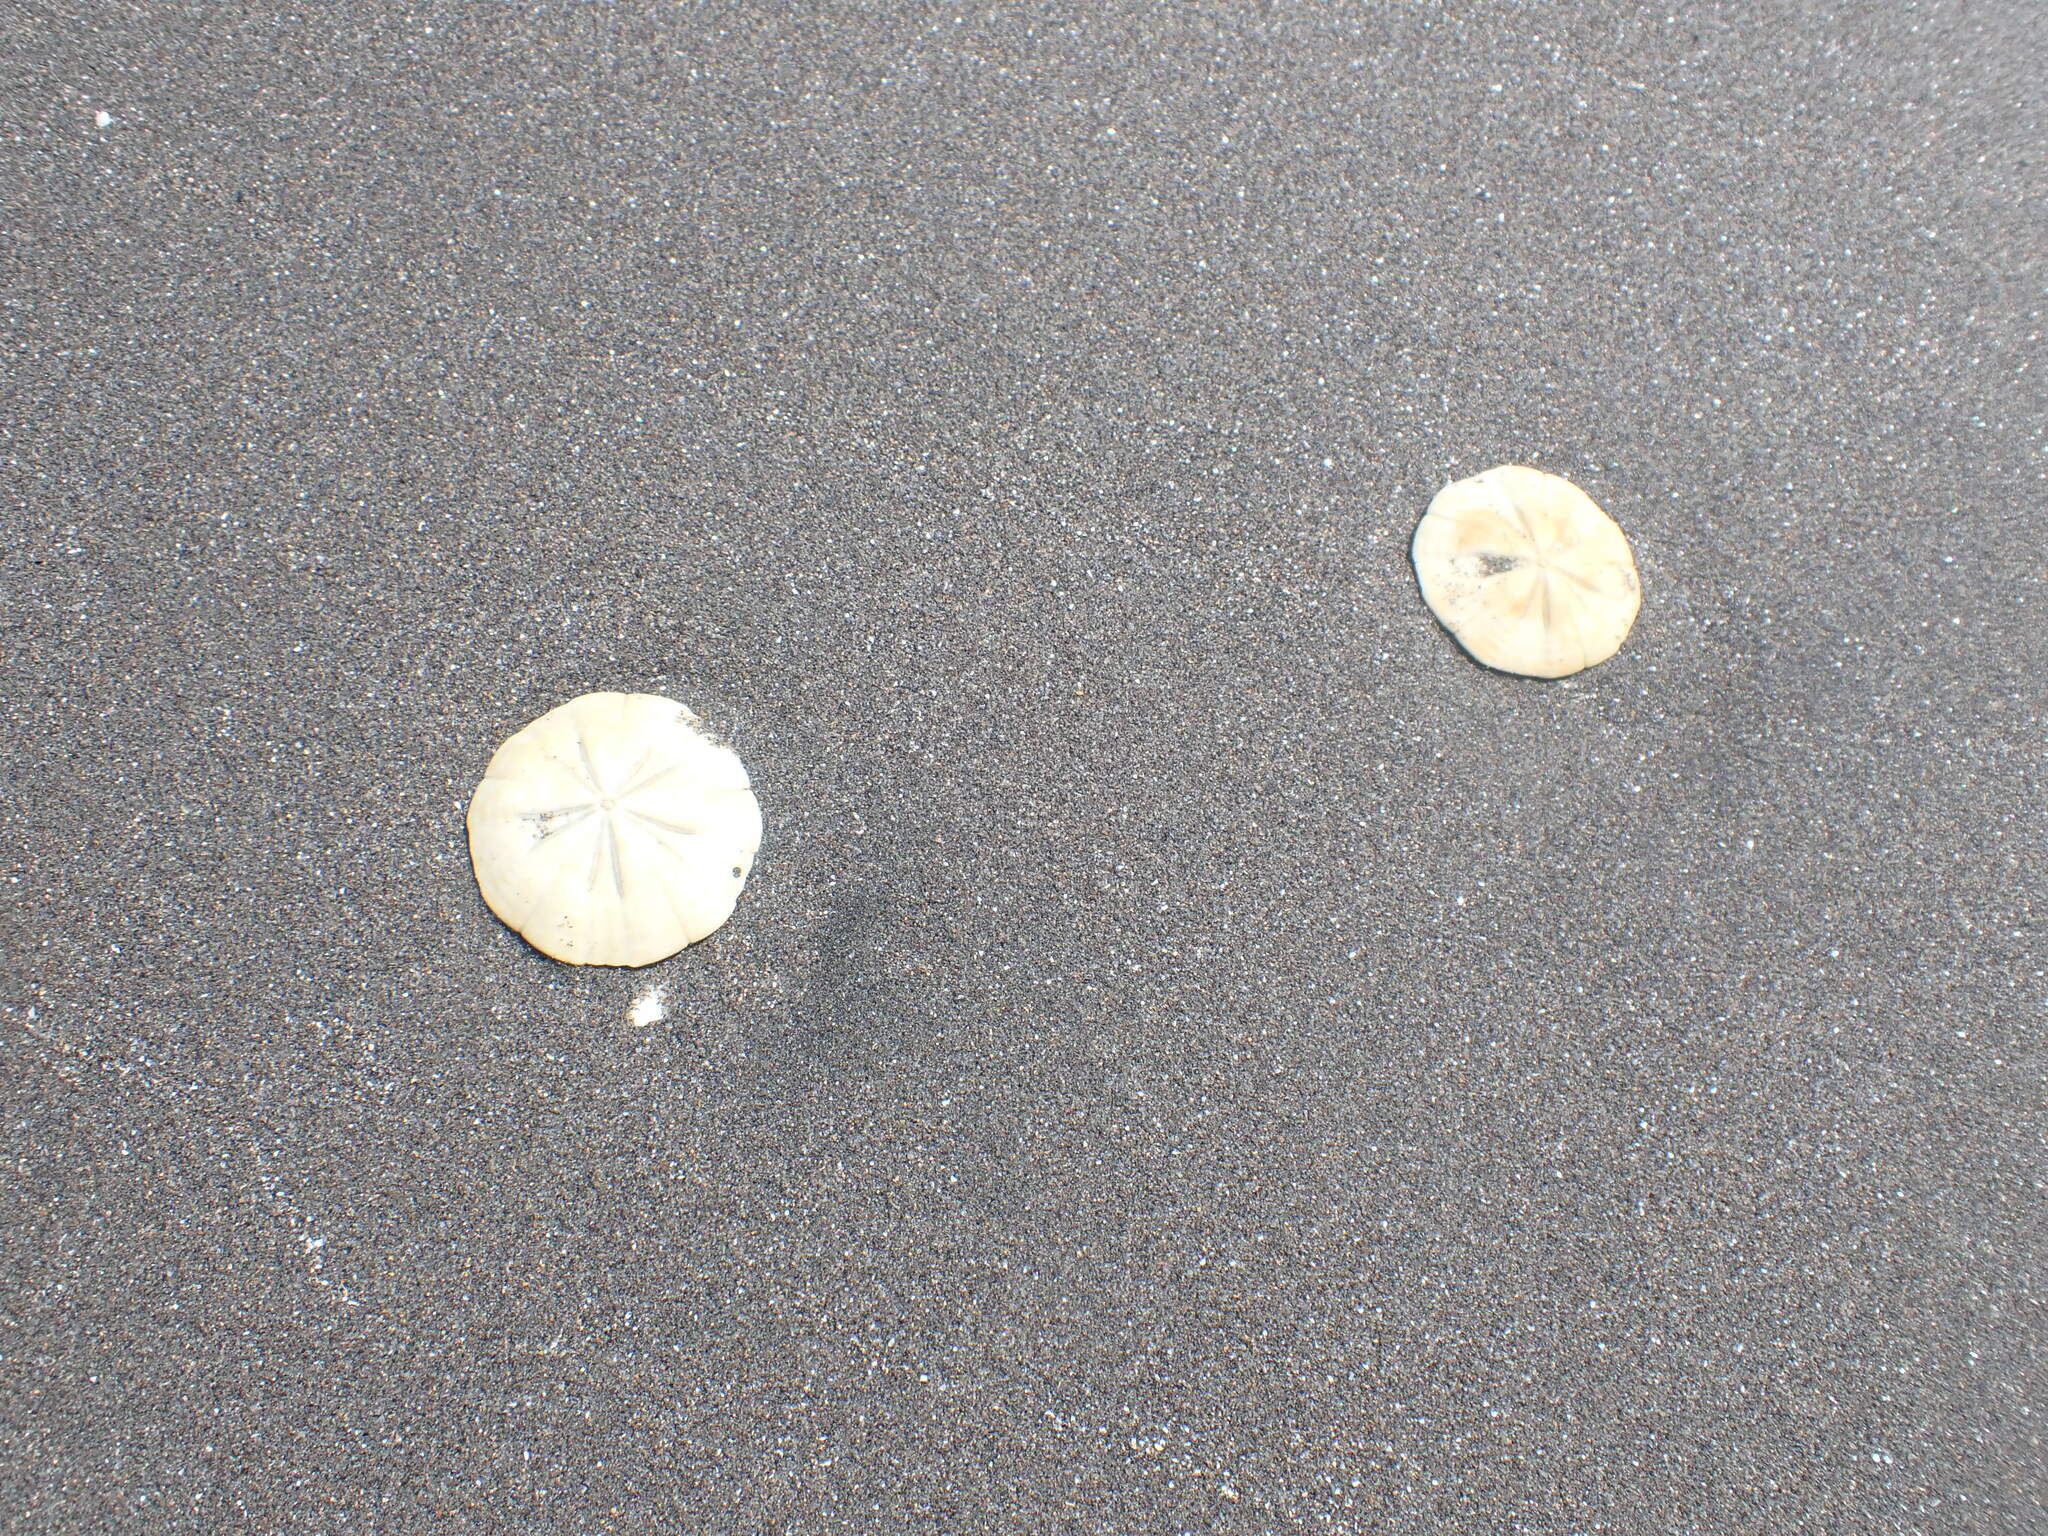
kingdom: Animalia
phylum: Echinodermata
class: Echinoidea
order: Clypeasteroida
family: Clypeasteridae
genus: Fellaster
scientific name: Fellaster zelandiae
